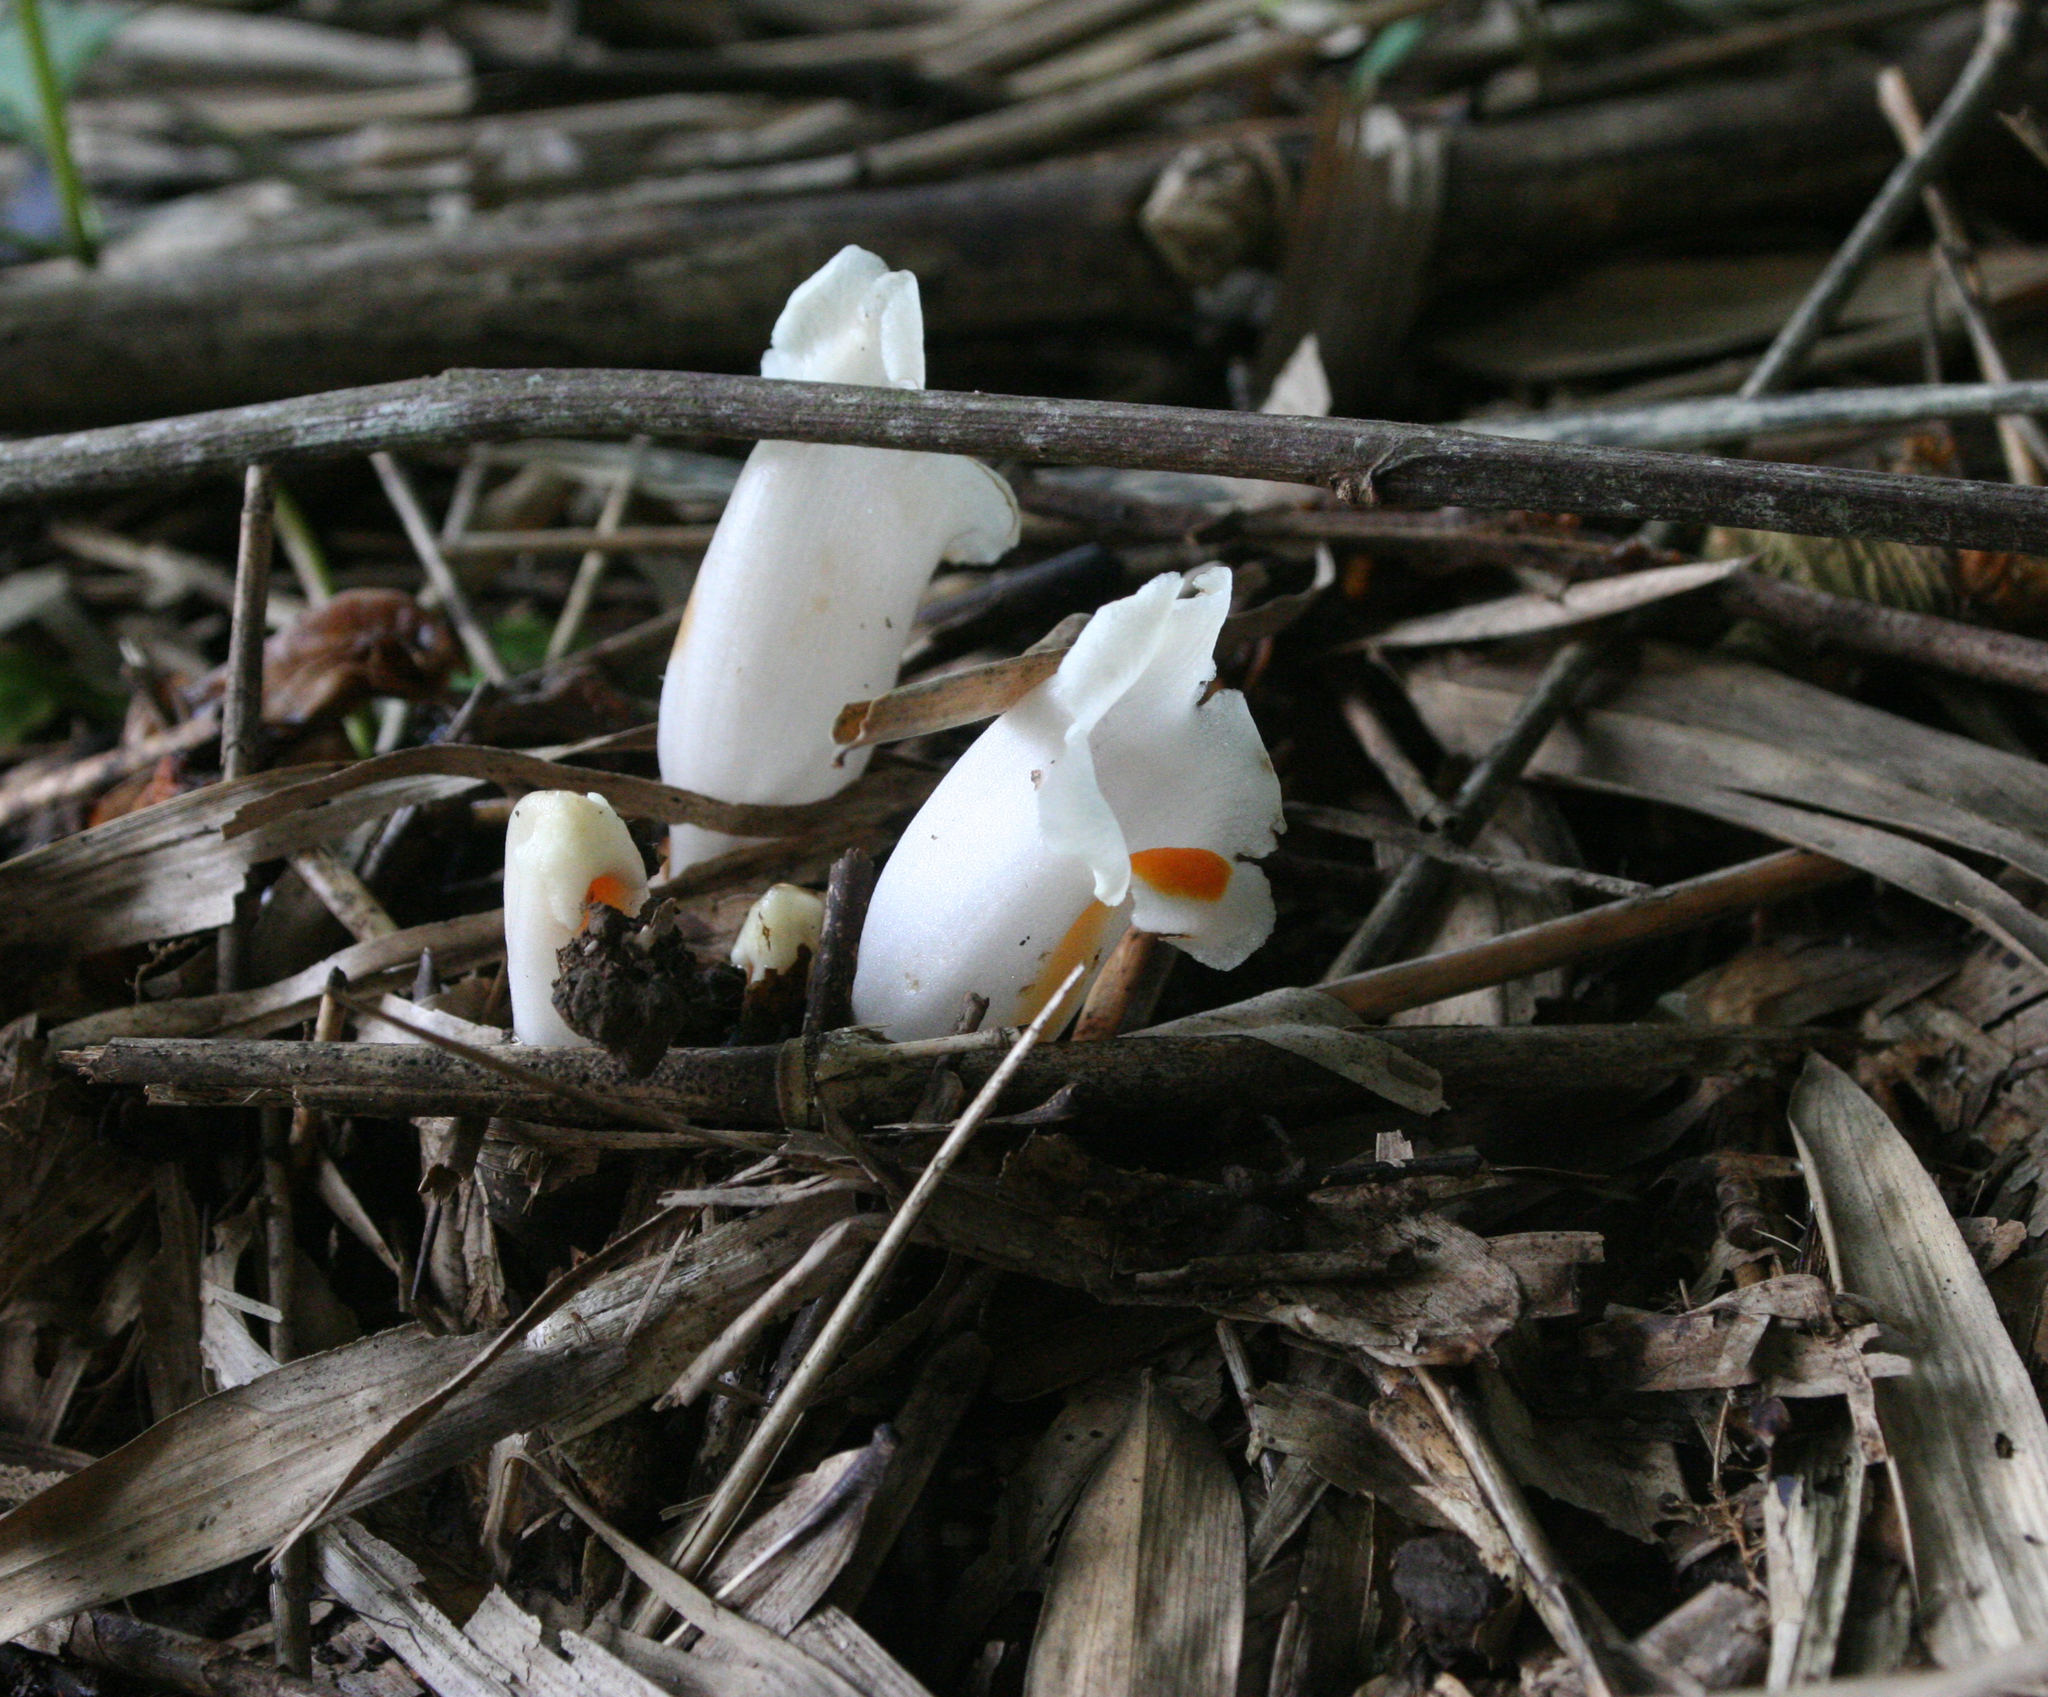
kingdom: Plantae
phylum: Tracheophyta
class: Magnoliopsida
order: Lamiales
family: Orobanchaceae
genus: Christisonia
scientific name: Christisonia scortechinii
